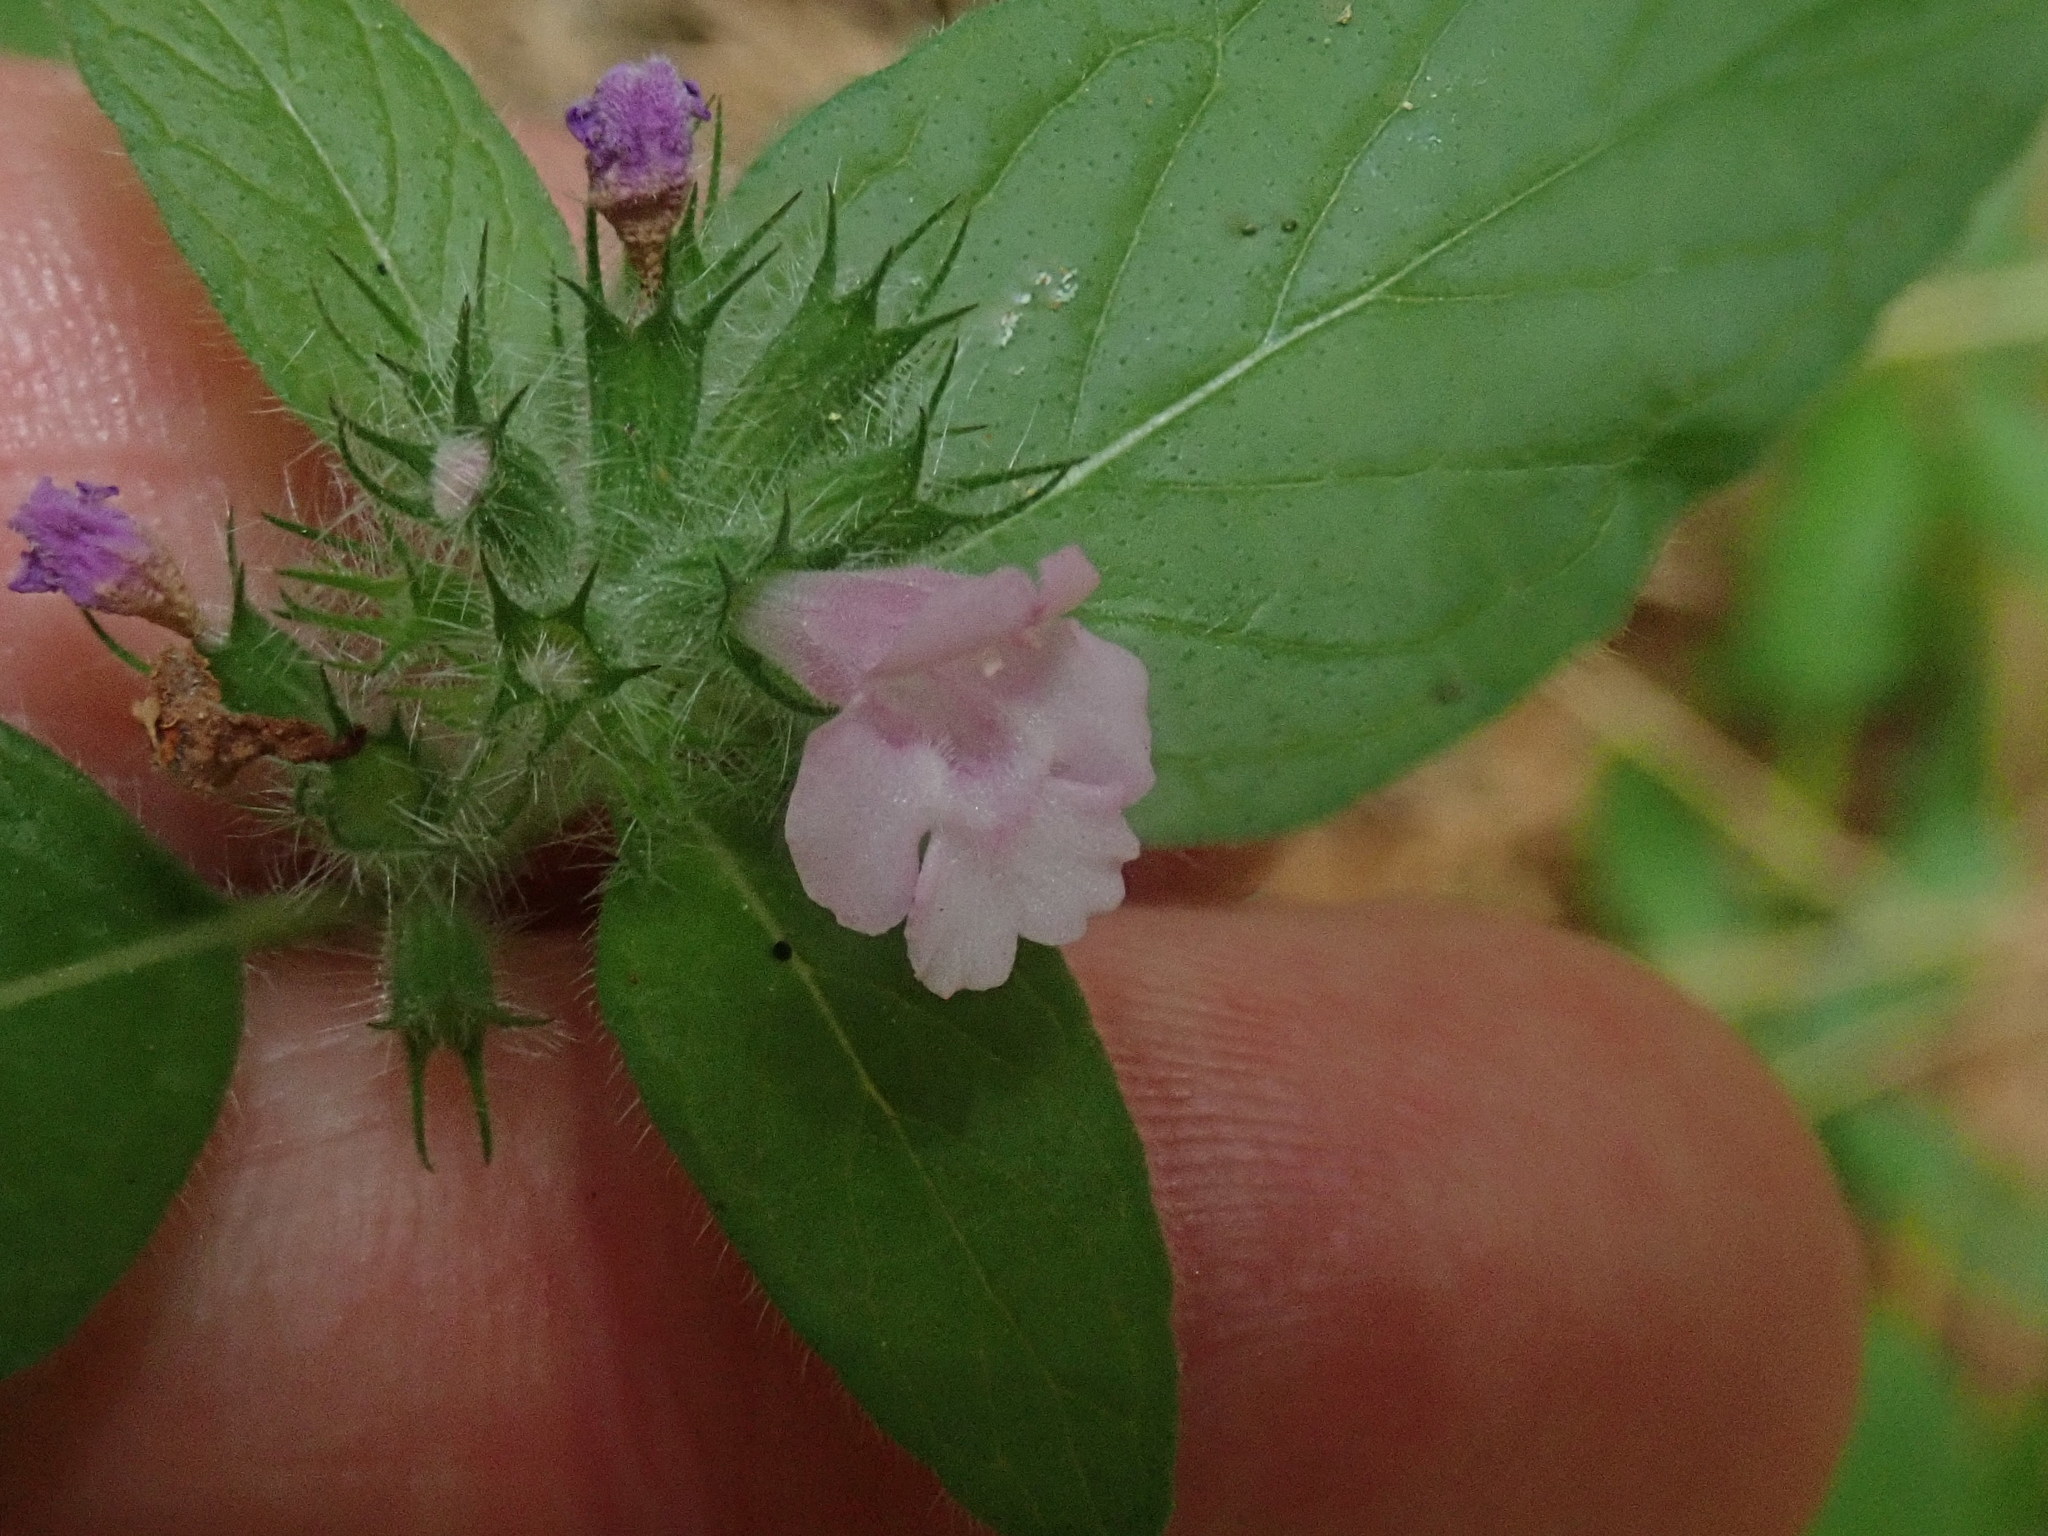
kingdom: Plantae
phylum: Tracheophyta
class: Magnoliopsida
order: Lamiales
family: Lamiaceae
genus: Clinopodium
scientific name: Clinopodium vulgare
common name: Wild basil
